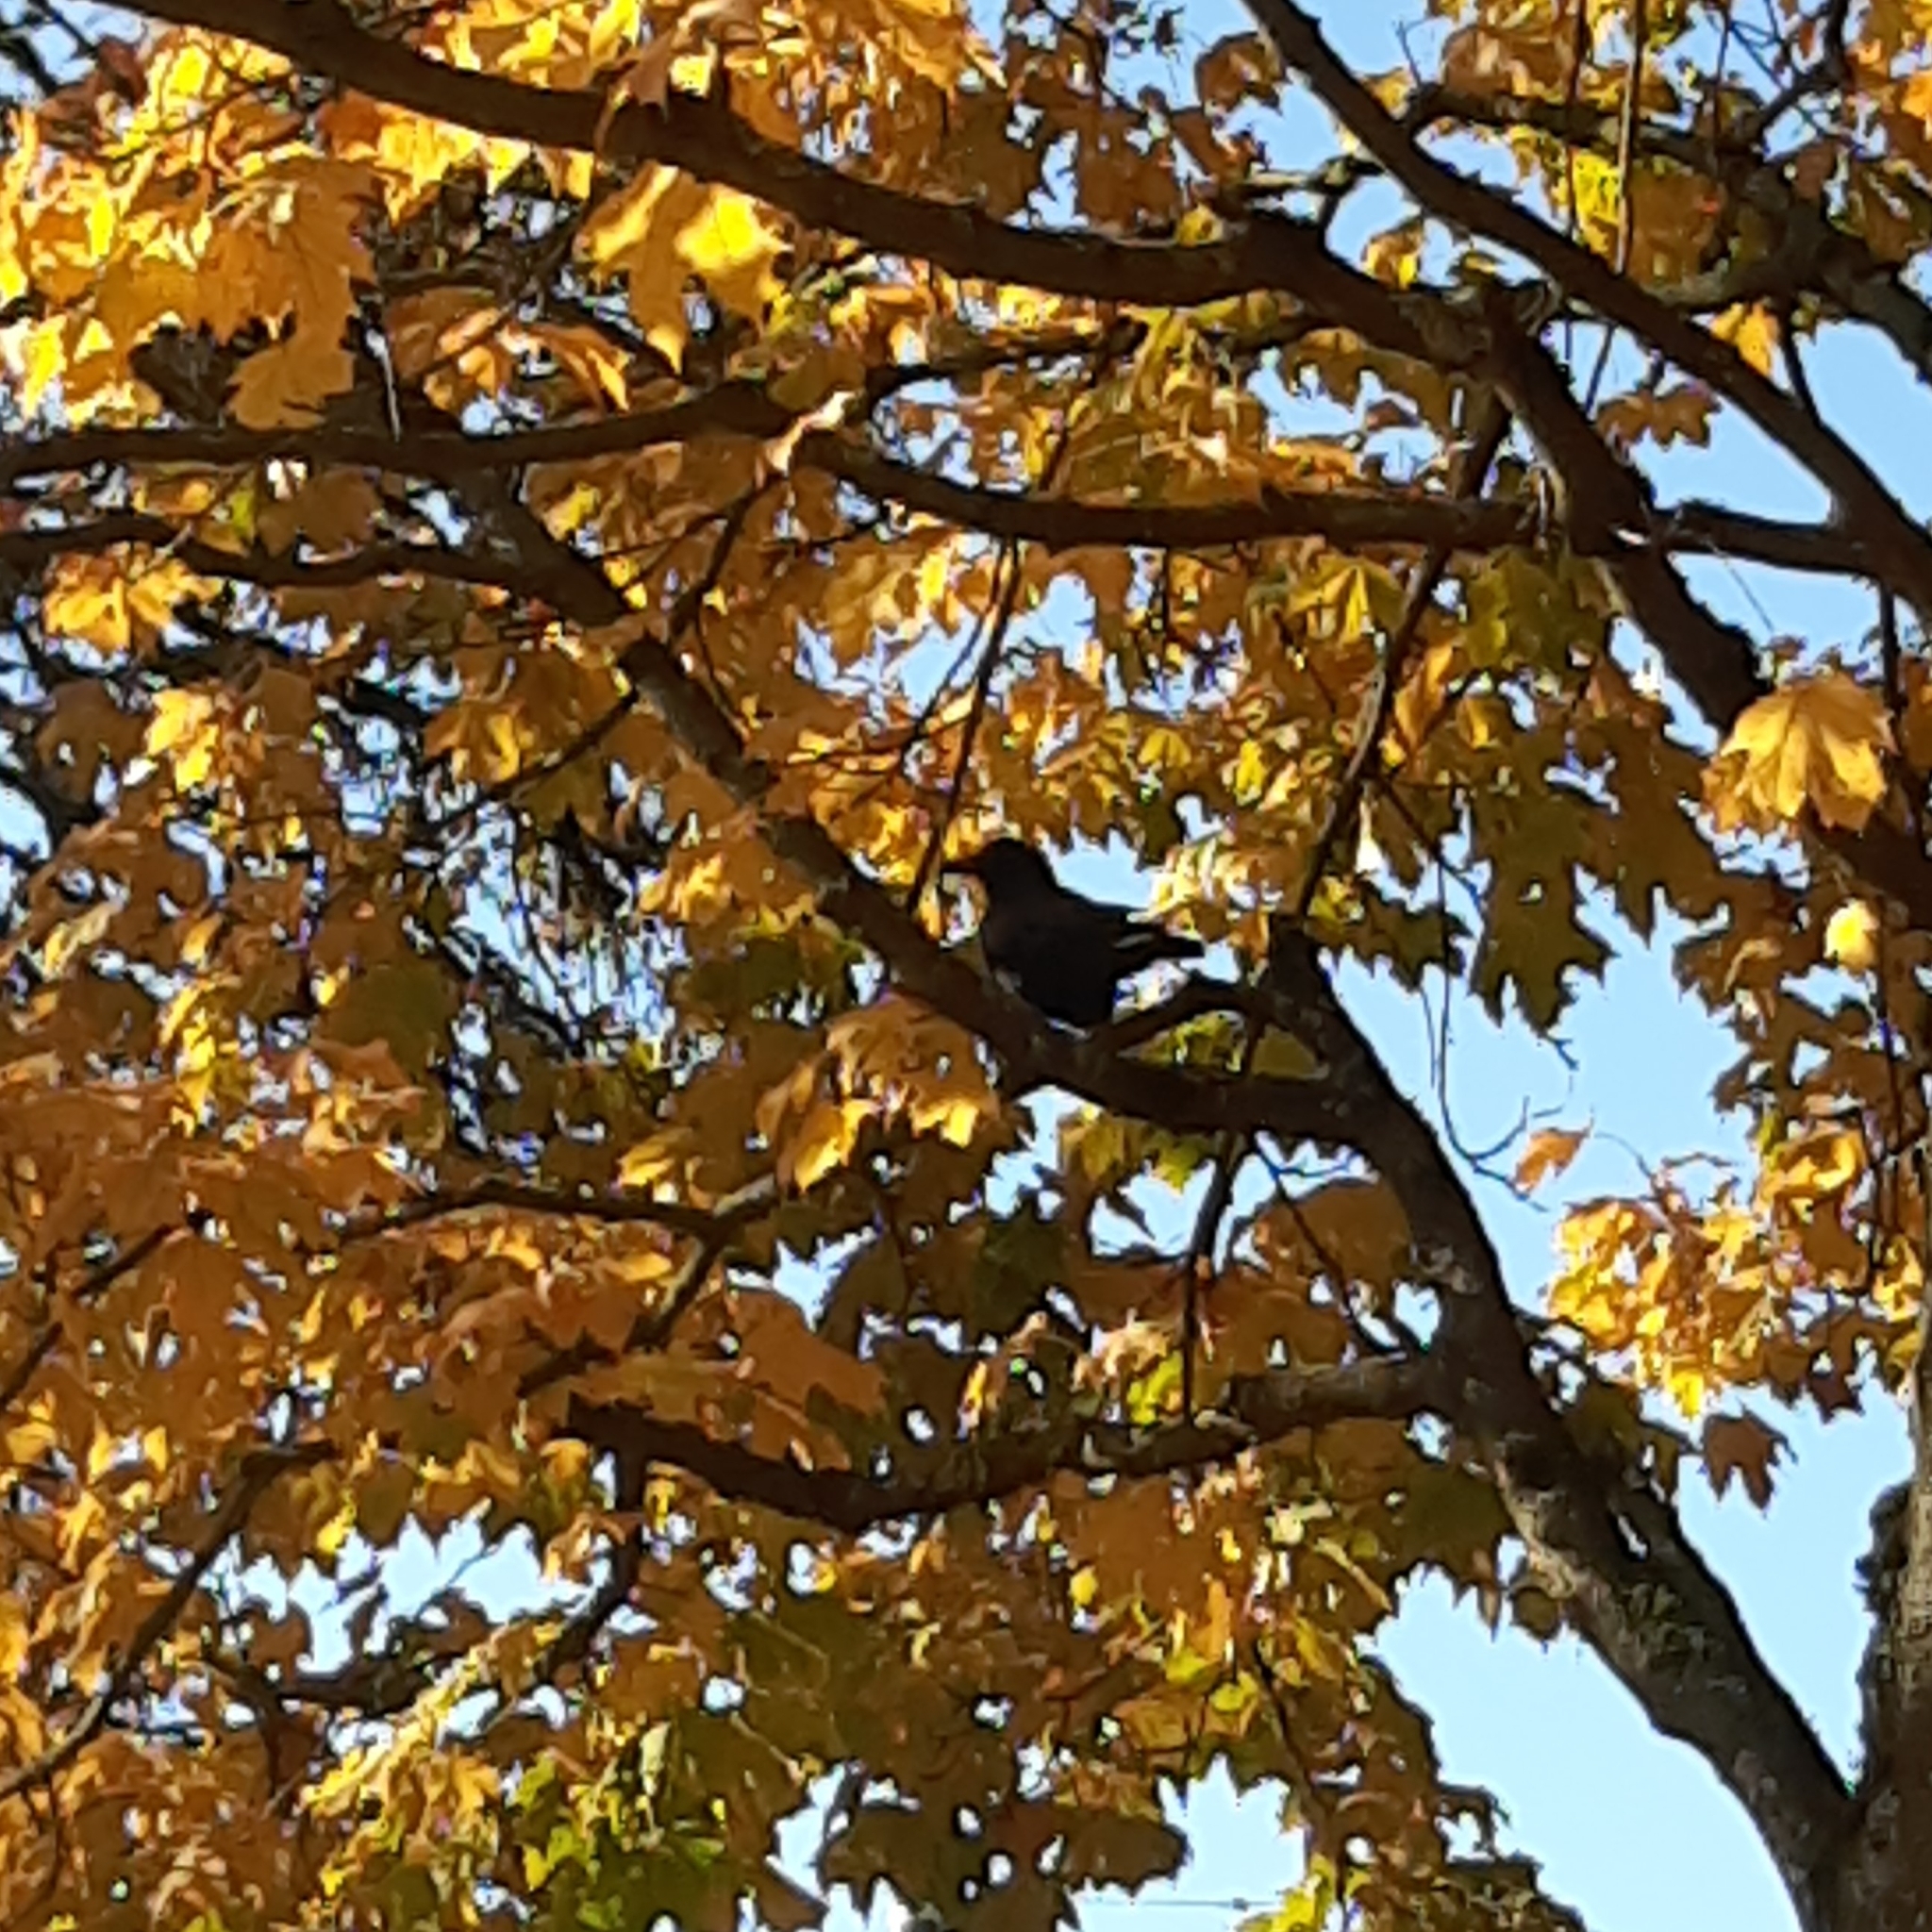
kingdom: Animalia
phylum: Chordata
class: Aves
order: Passeriformes
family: Corvidae
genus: Corvus
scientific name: Corvus brachyrhynchos
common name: American crow
